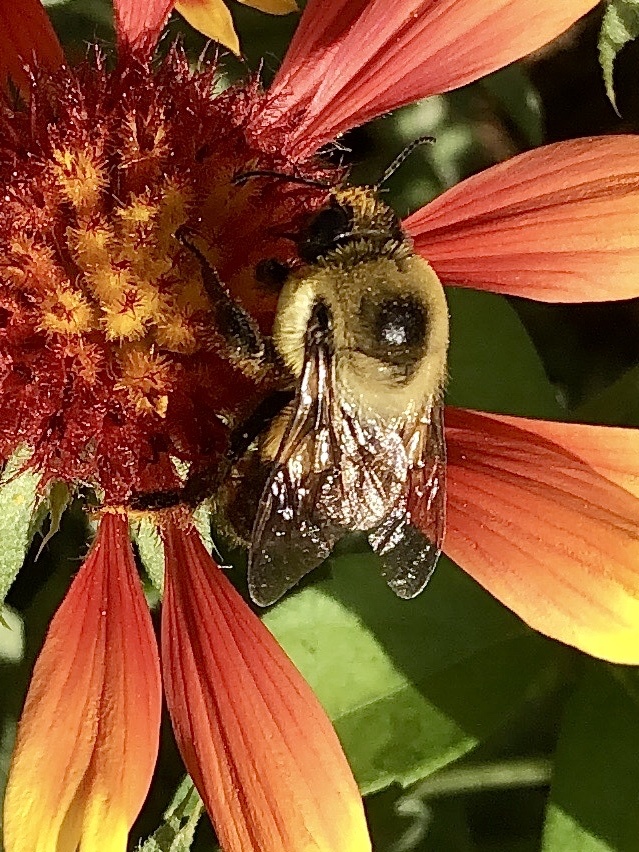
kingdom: Animalia
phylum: Arthropoda
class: Insecta
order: Hymenoptera
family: Apidae
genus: Bombus
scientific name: Bombus griseocollis
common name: Brown-belted bumble bee
